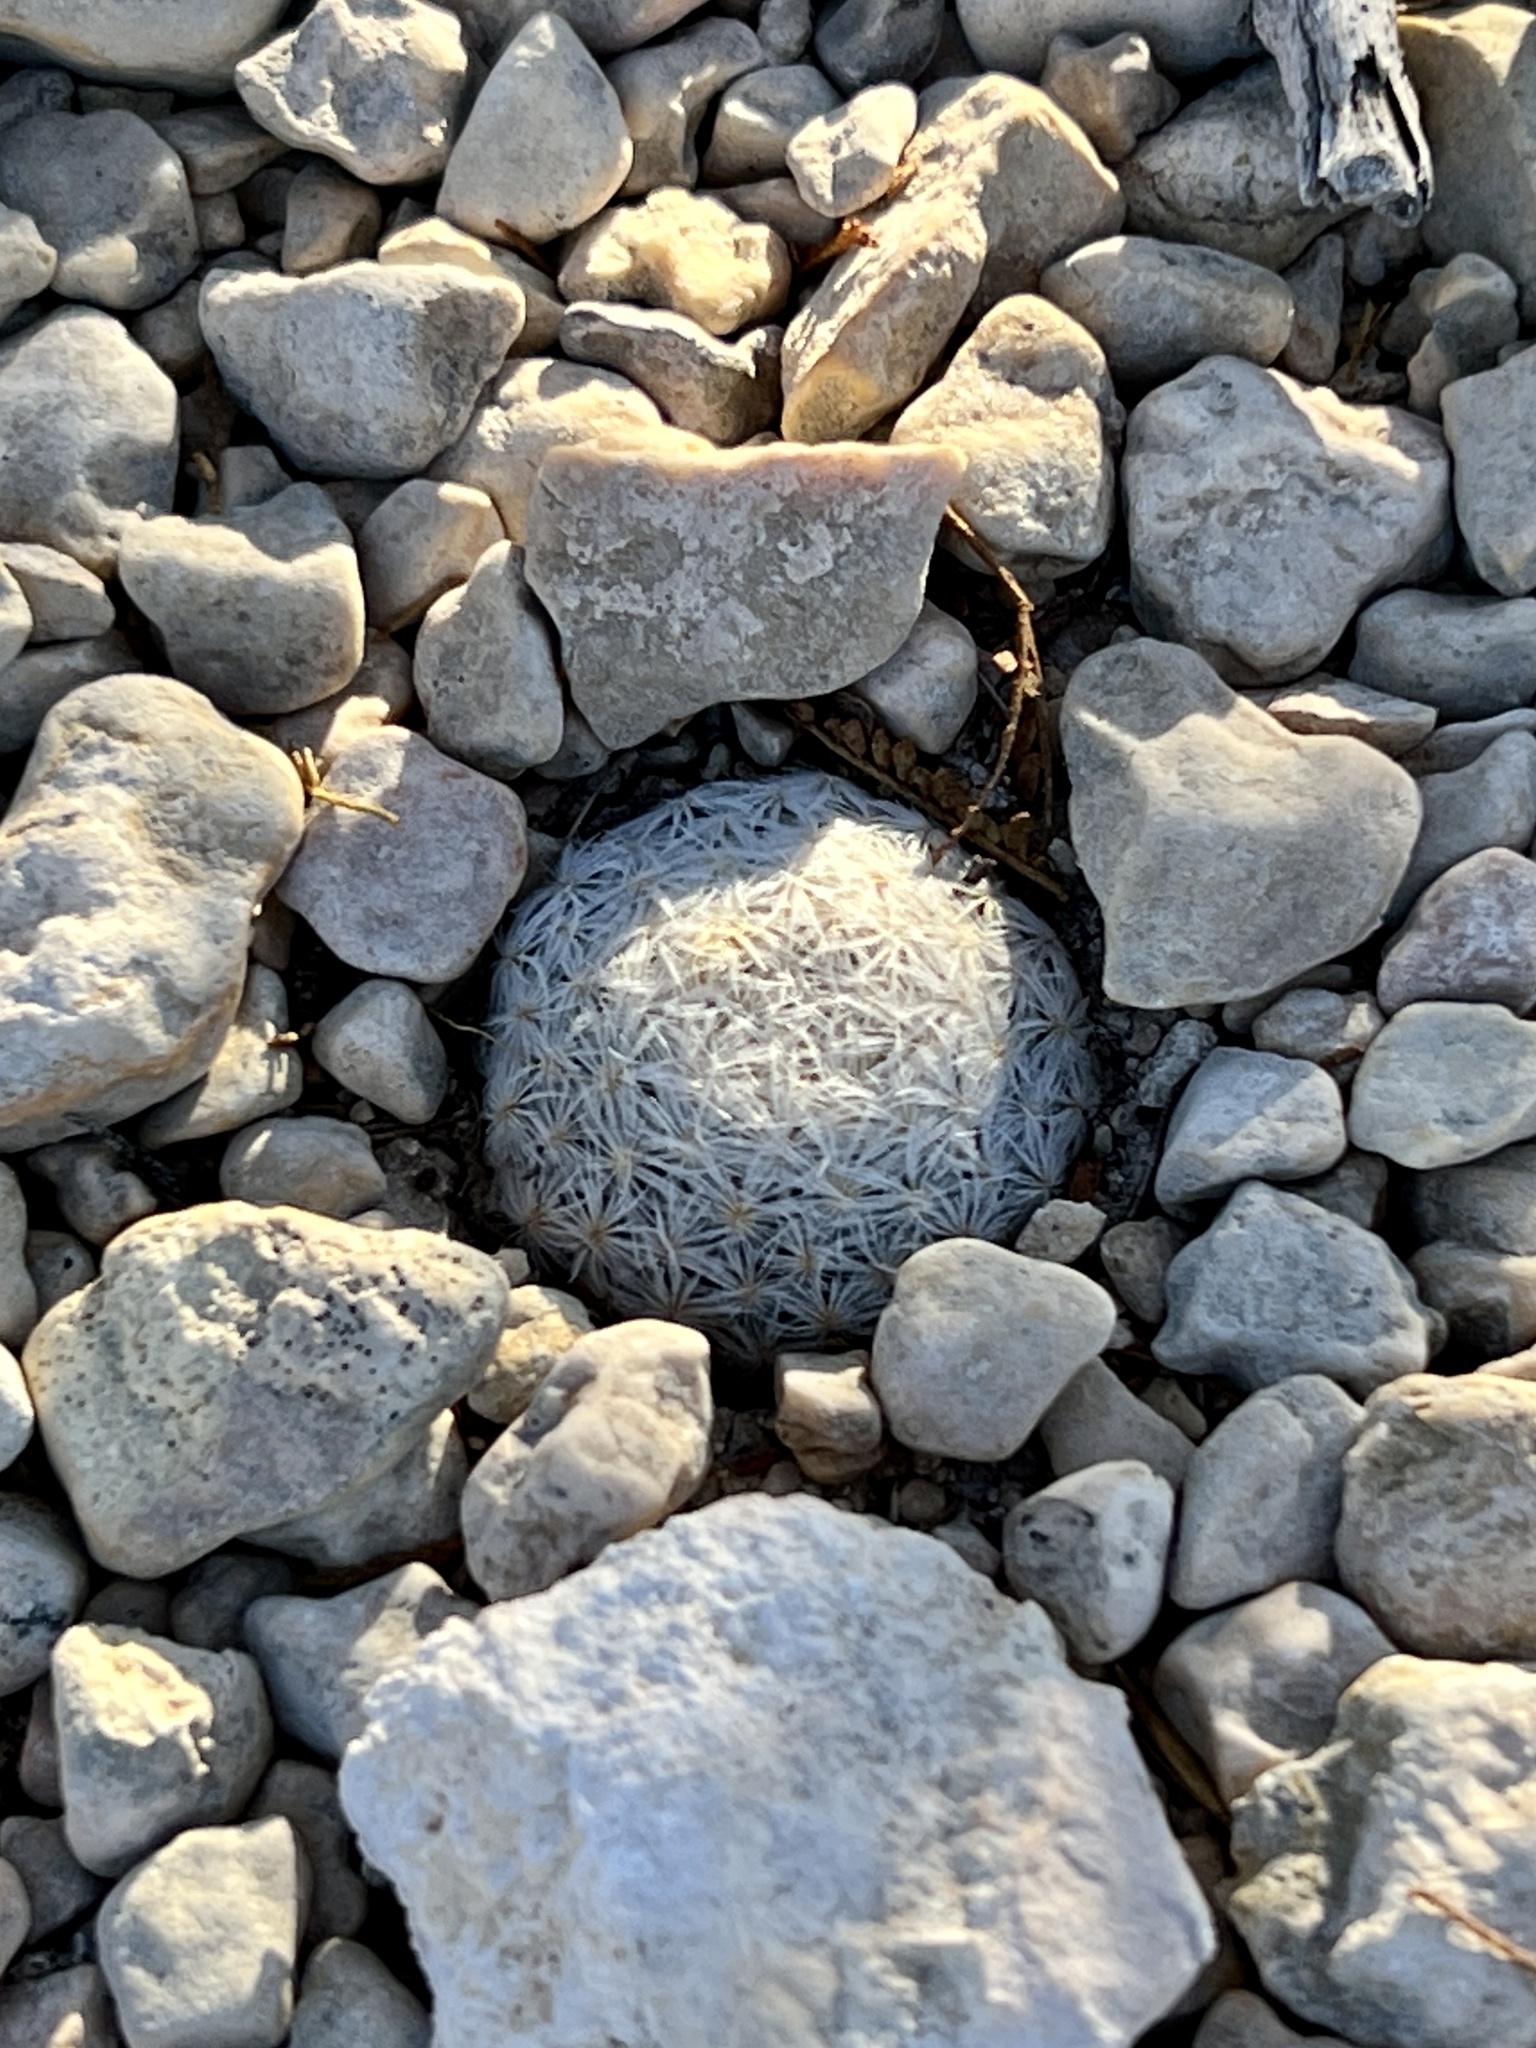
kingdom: Plantae
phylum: Tracheophyta
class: Magnoliopsida
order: Caryophyllales
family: Cactaceae
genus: Epithelantha
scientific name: Epithelantha micromeris
